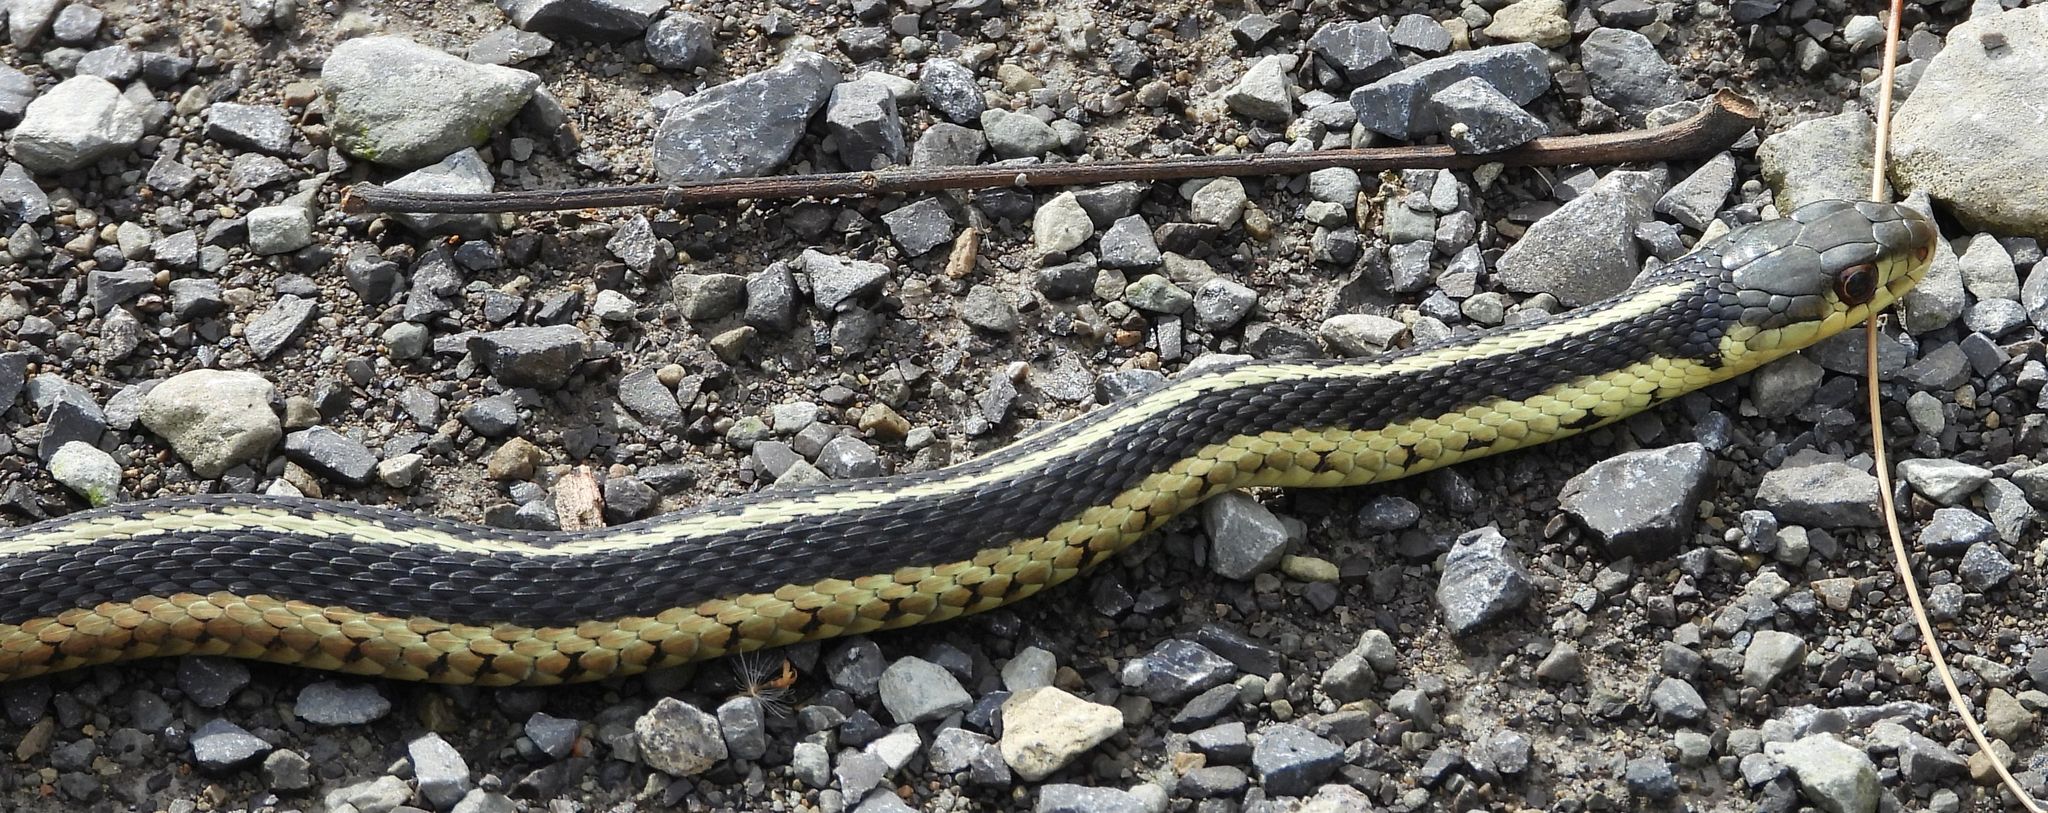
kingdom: Animalia
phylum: Chordata
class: Squamata
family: Colubridae
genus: Thamnophis
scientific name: Thamnophis sirtalis
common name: Common garter snake
